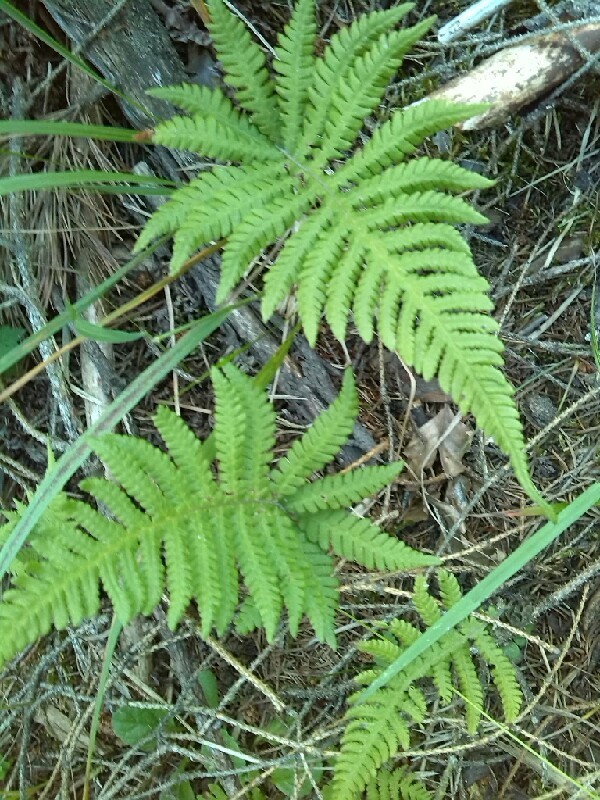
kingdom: Plantae
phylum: Tracheophyta
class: Polypodiopsida
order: Polypodiales
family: Thelypteridaceae
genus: Phegopteris
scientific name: Phegopteris connectilis
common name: Beech fern
